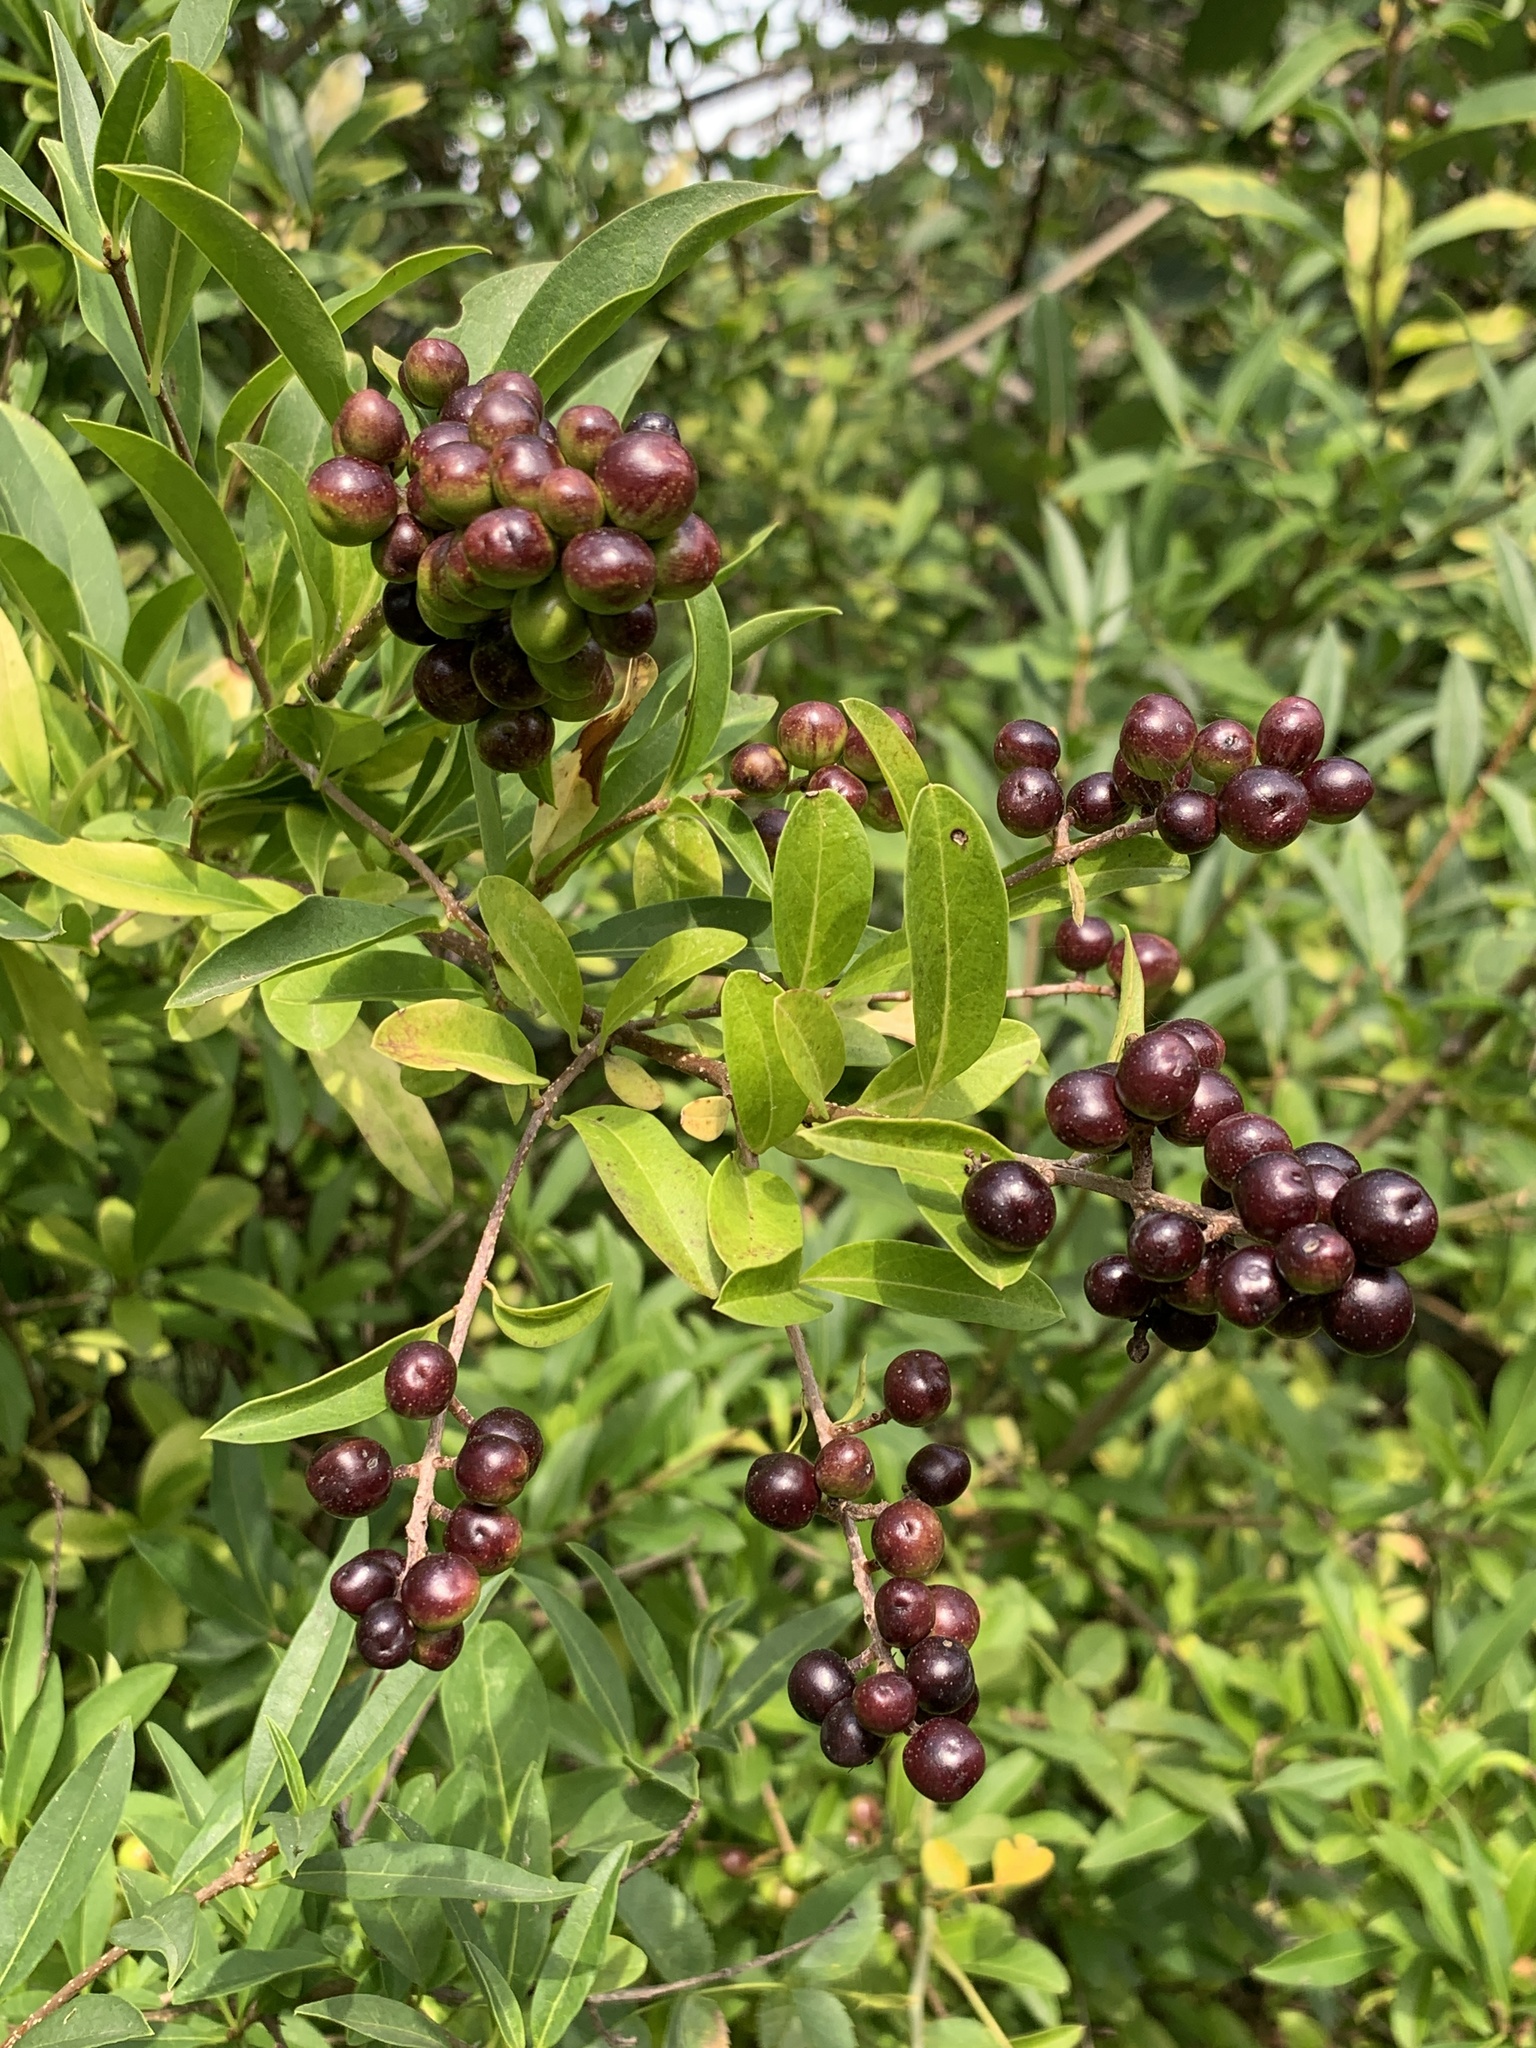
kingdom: Plantae
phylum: Tracheophyta
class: Magnoliopsida
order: Lamiales
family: Oleaceae
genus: Ligustrum
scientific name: Ligustrum vulgare
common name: Wild privet
